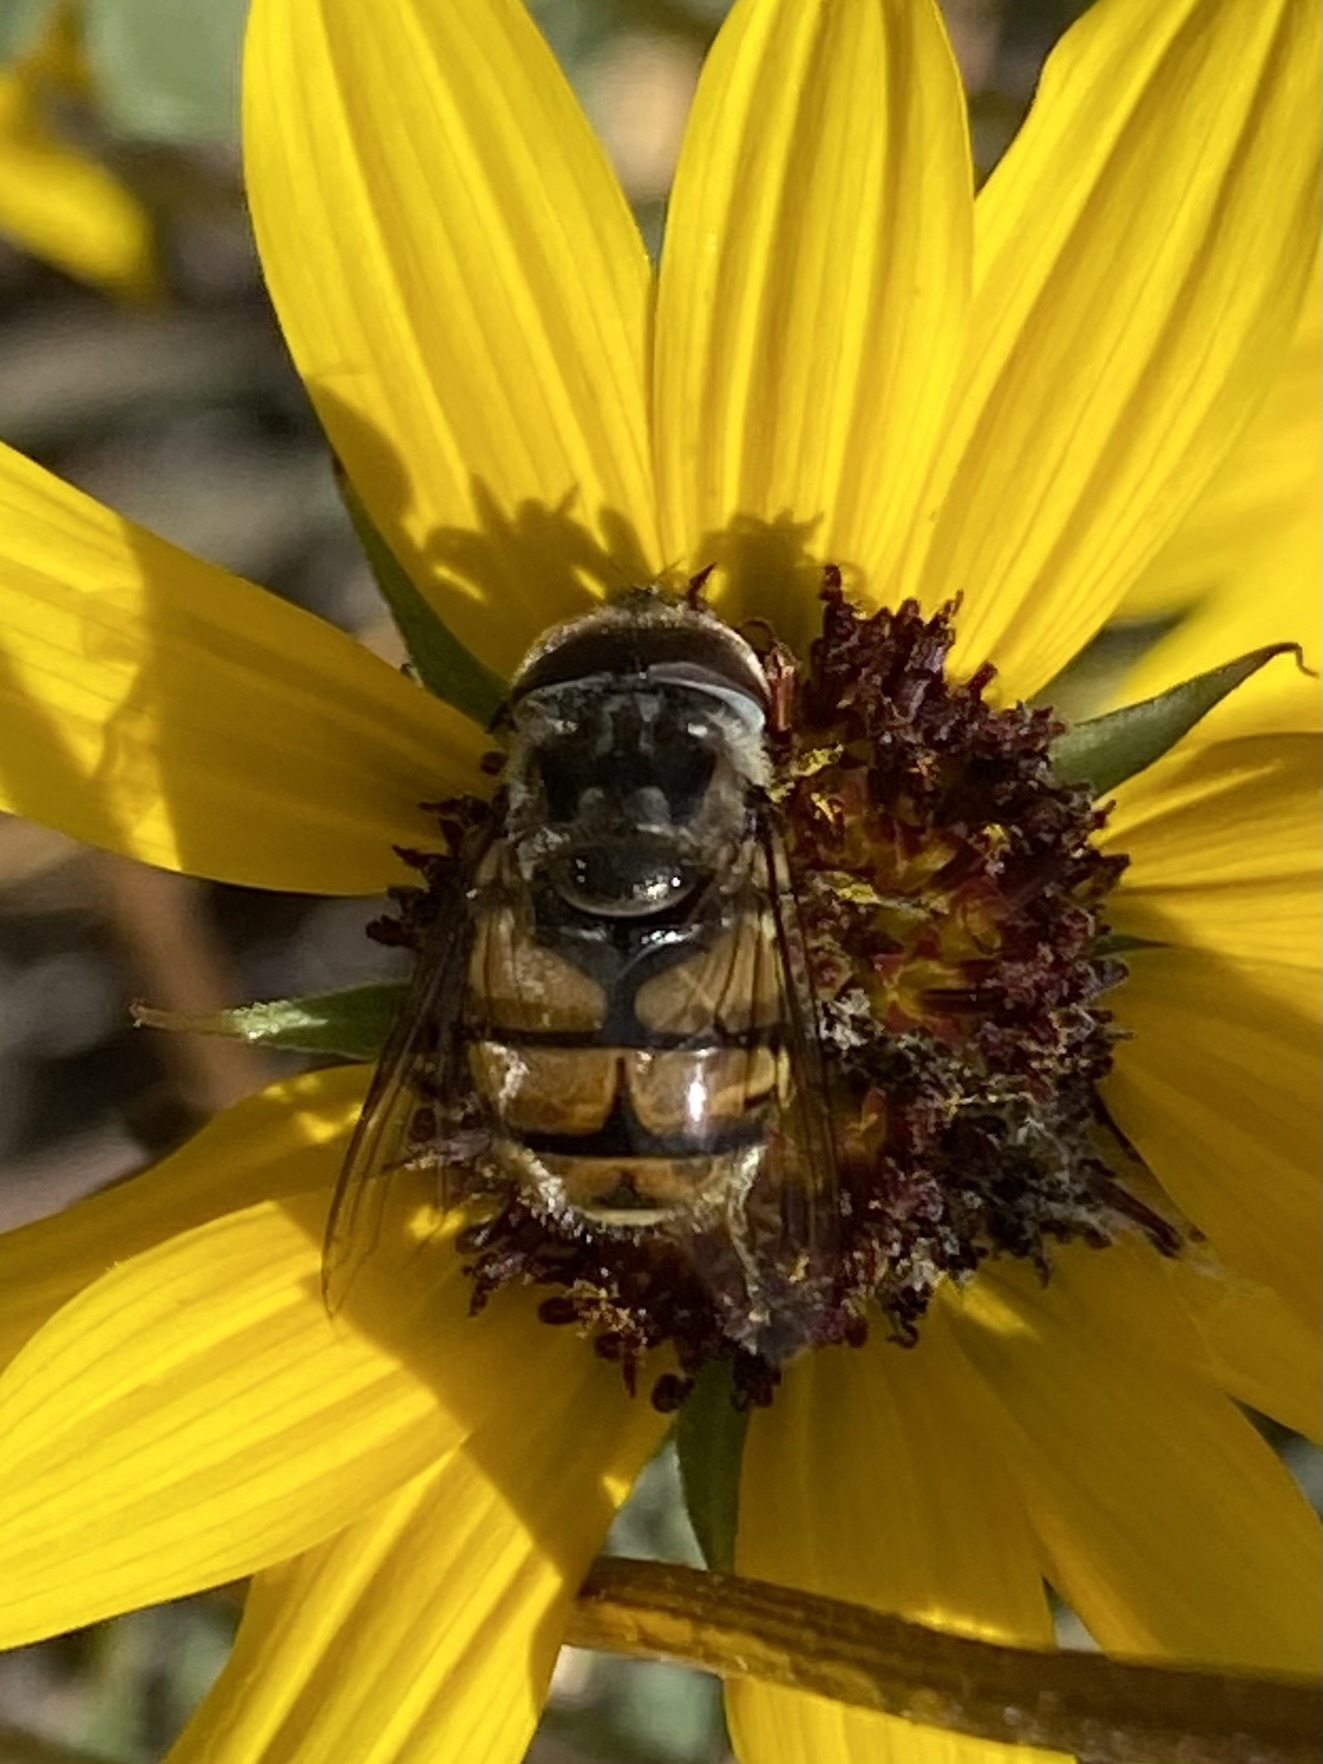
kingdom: Animalia
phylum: Arthropoda
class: Insecta
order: Diptera
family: Syrphidae
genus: Copestylum
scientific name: Copestylum avidum
